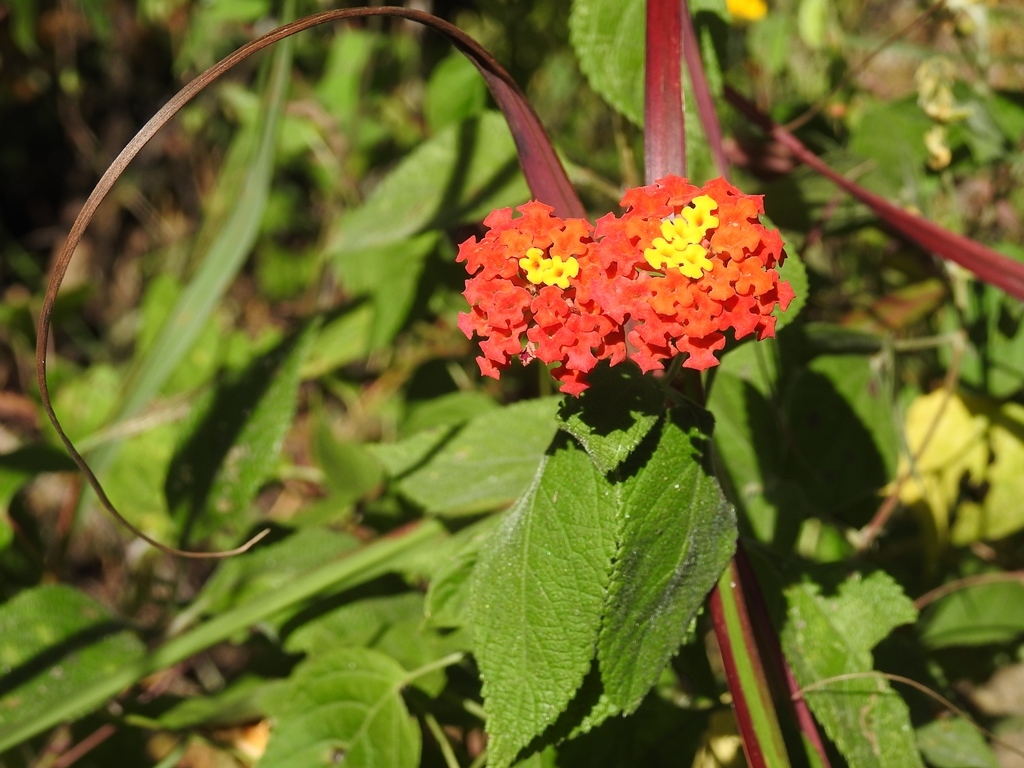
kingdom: Plantae
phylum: Tracheophyta
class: Magnoliopsida
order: Lamiales
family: Verbenaceae
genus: Lantana
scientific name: Lantana camara
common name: Lantana
